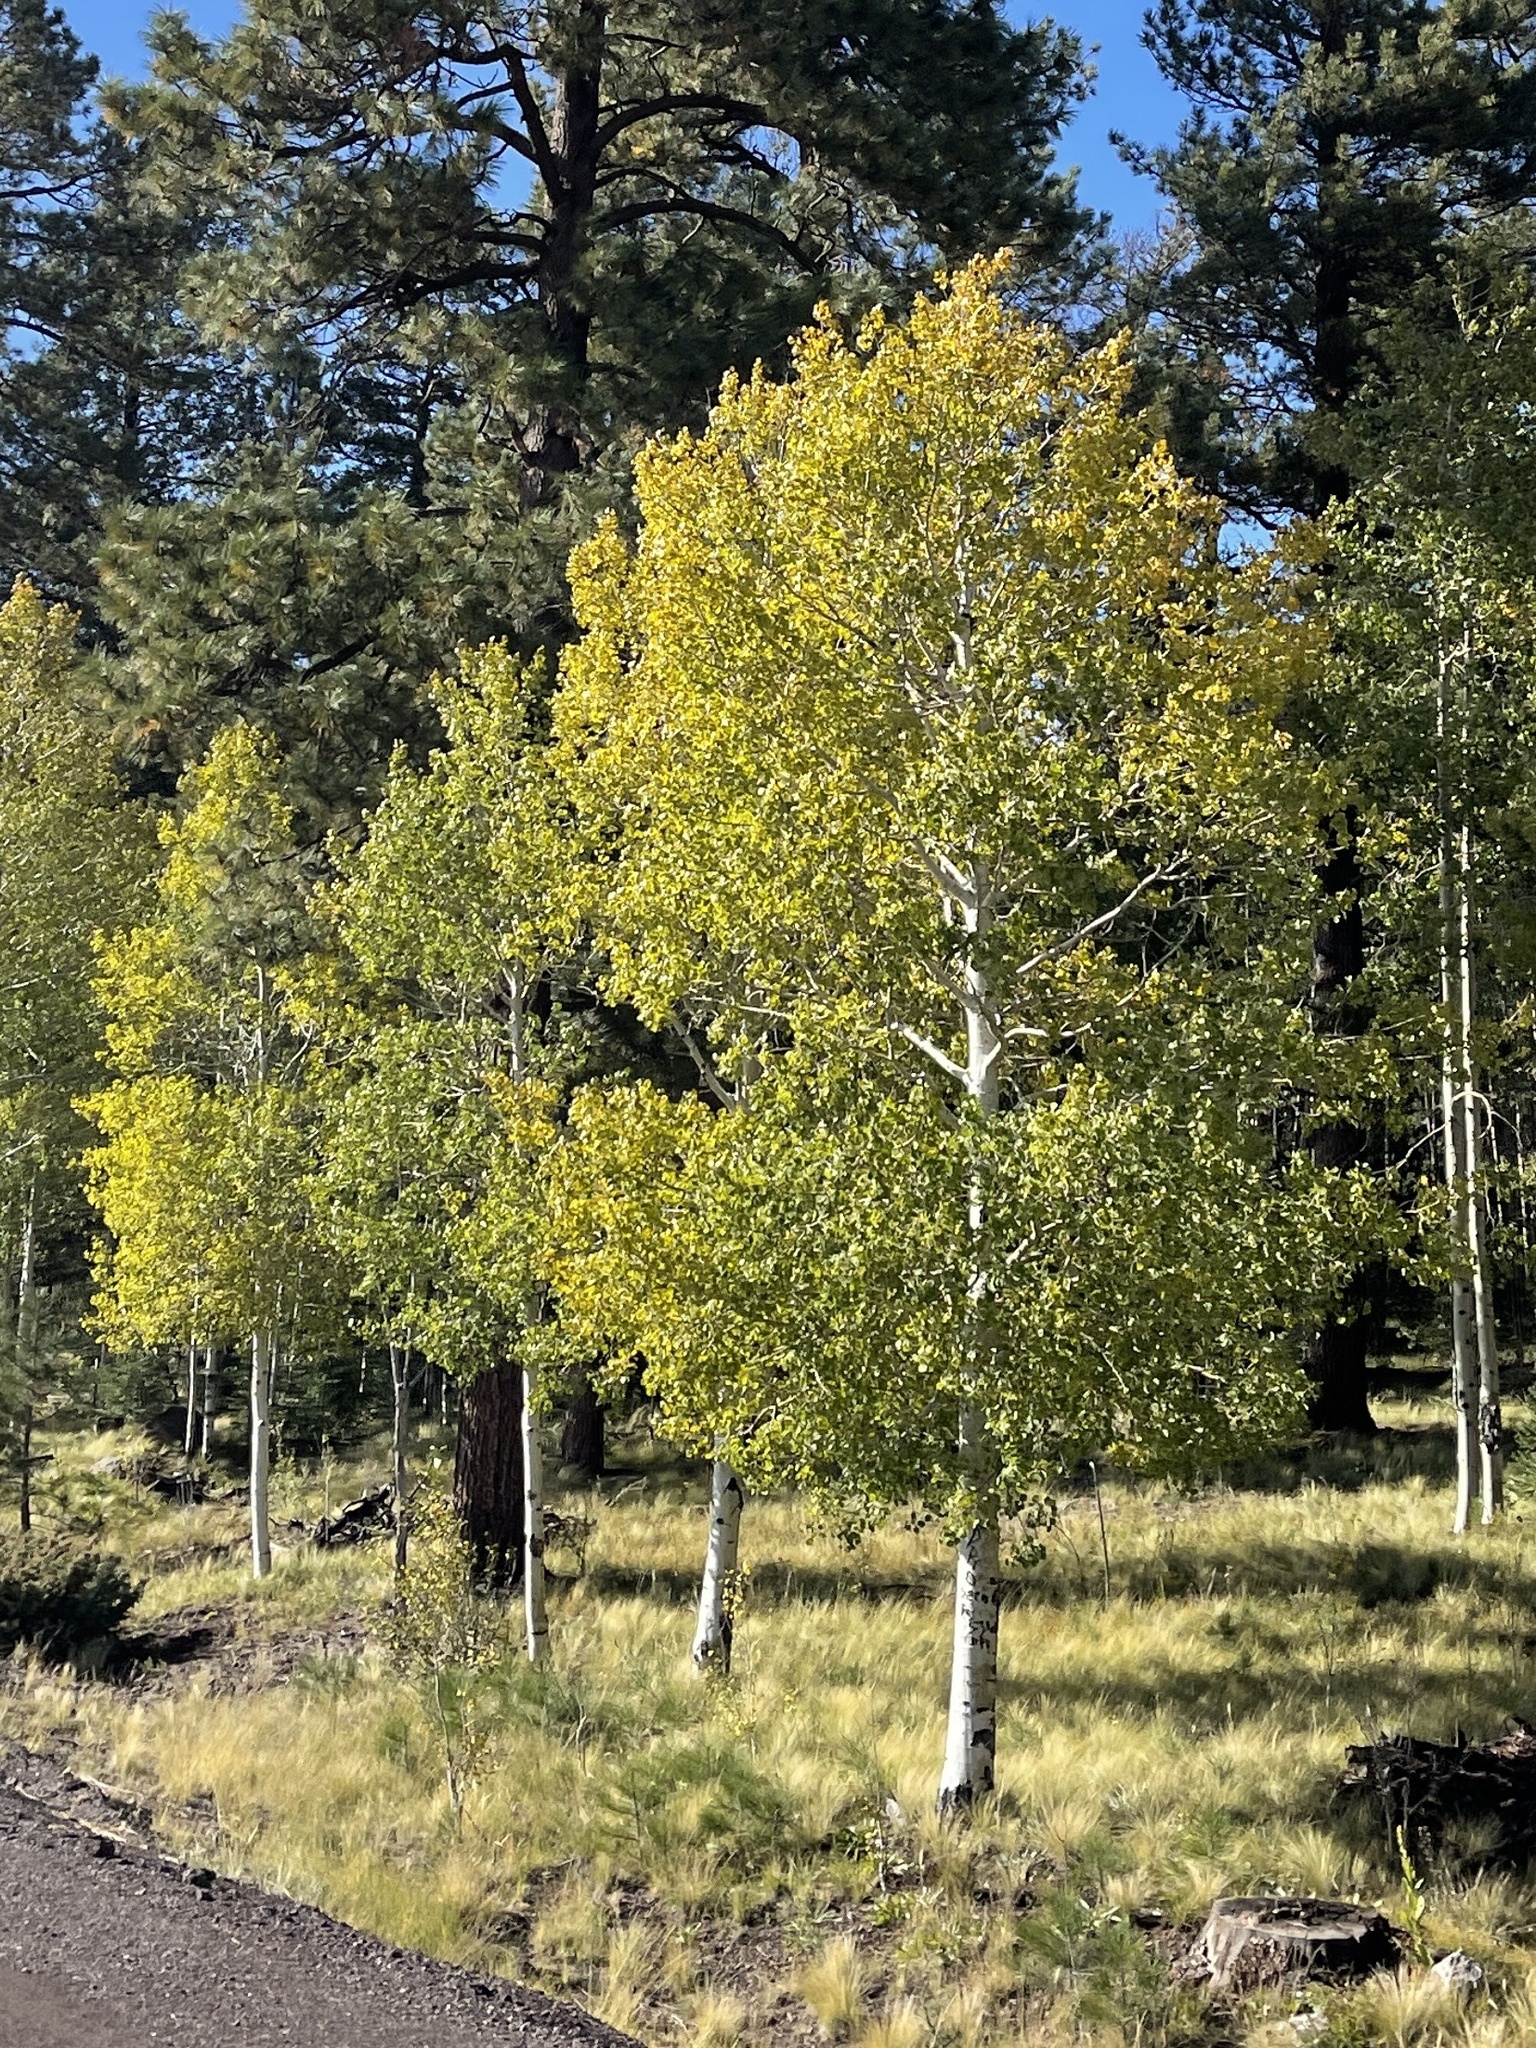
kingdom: Plantae
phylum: Tracheophyta
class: Magnoliopsida
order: Malpighiales
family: Salicaceae
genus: Populus
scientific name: Populus tremuloides
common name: Quaking aspen
